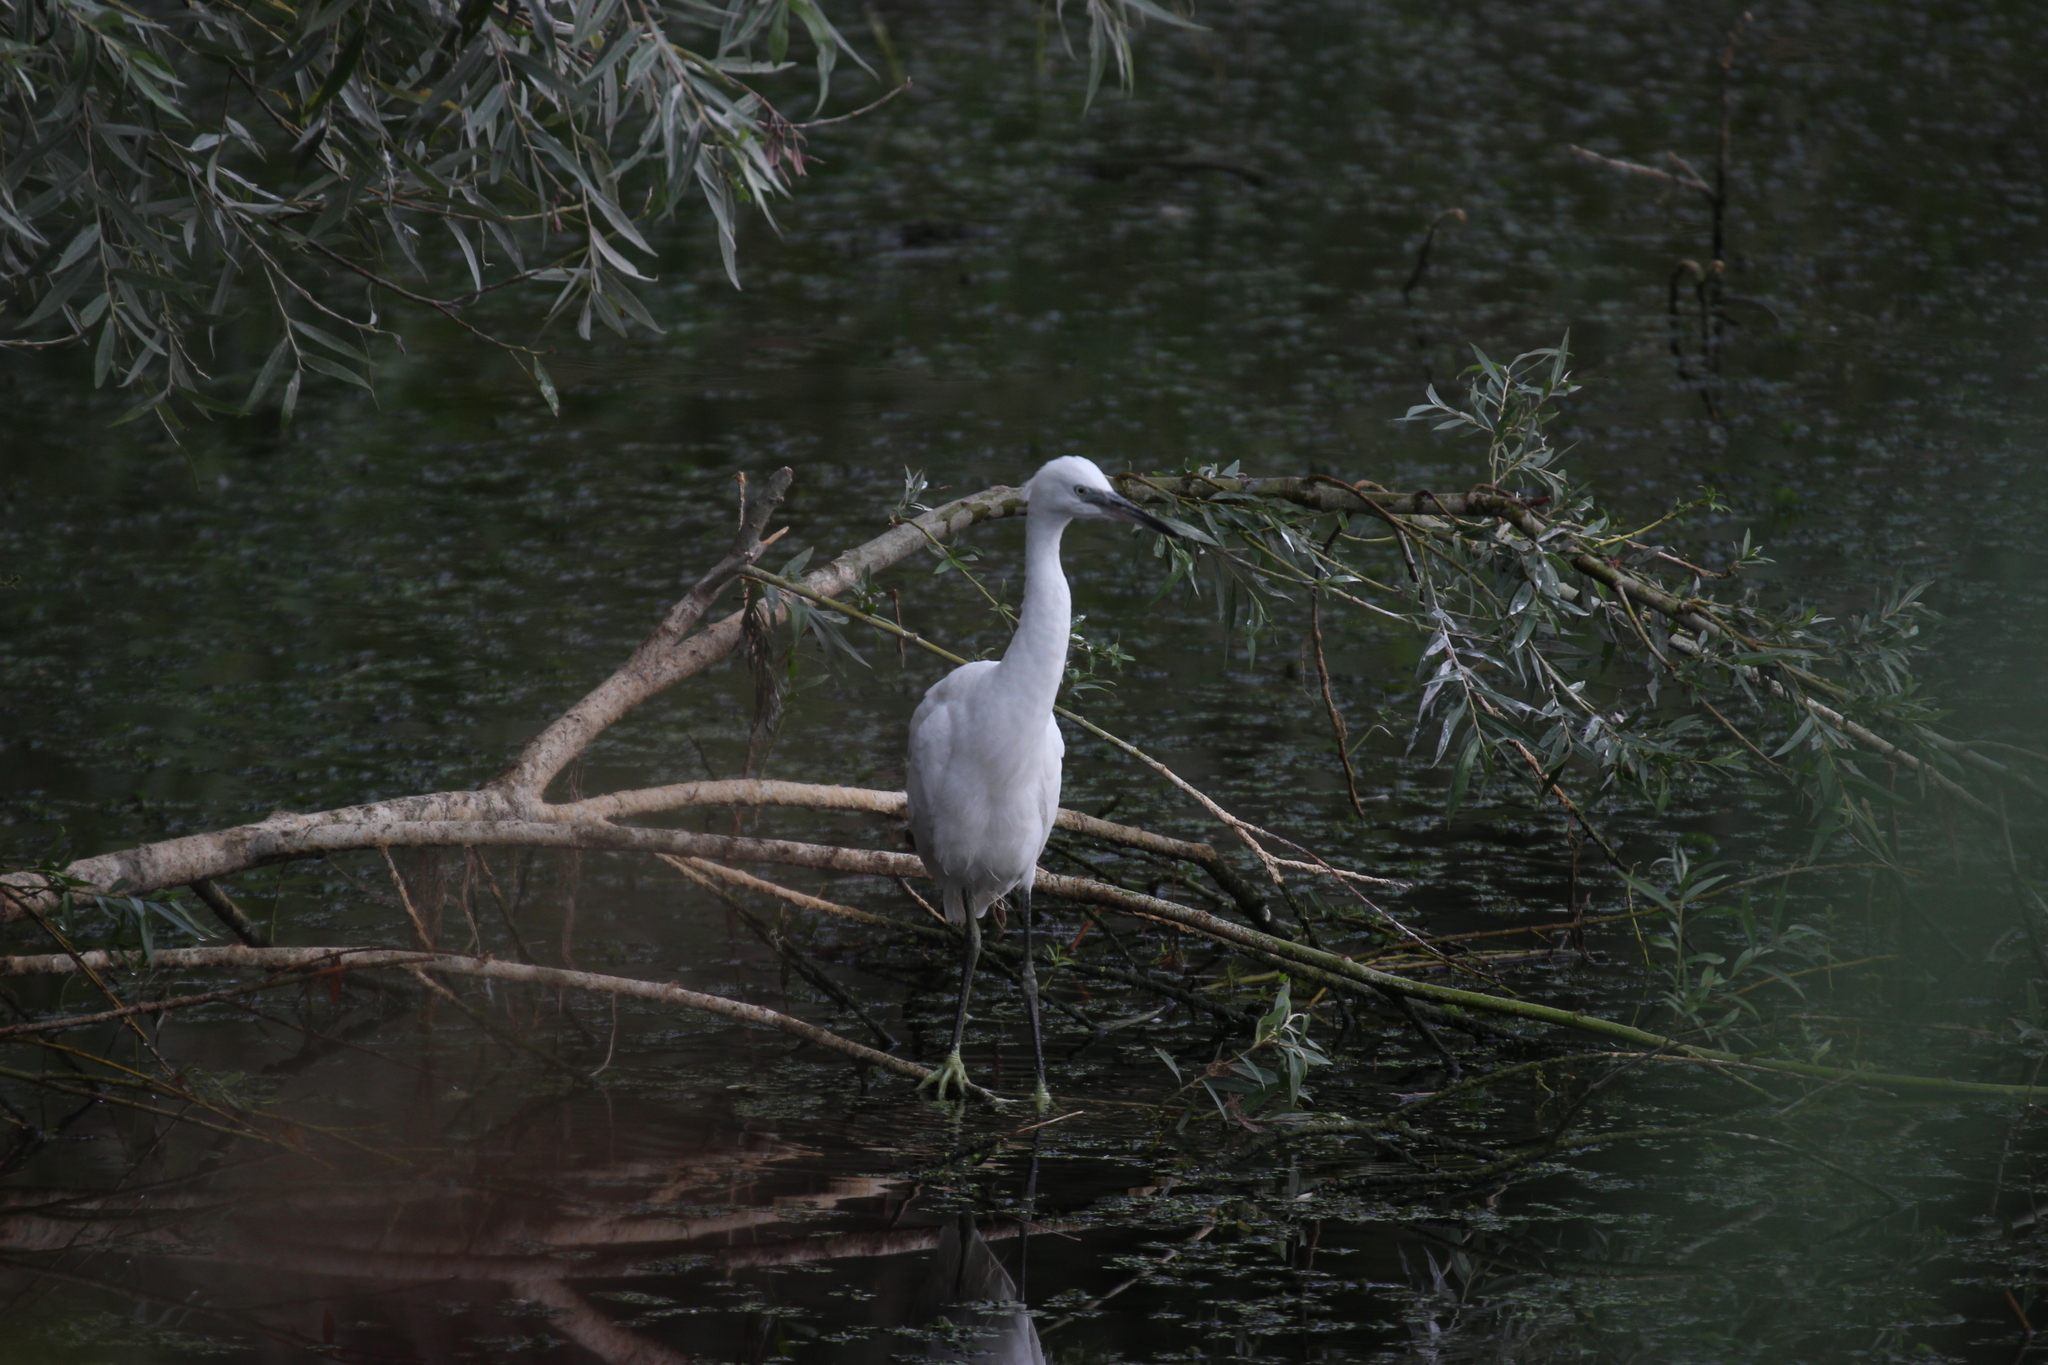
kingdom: Animalia
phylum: Chordata
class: Aves
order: Pelecaniformes
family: Ardeidae
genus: Egretta
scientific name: Egretta garzetta
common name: Little egret
